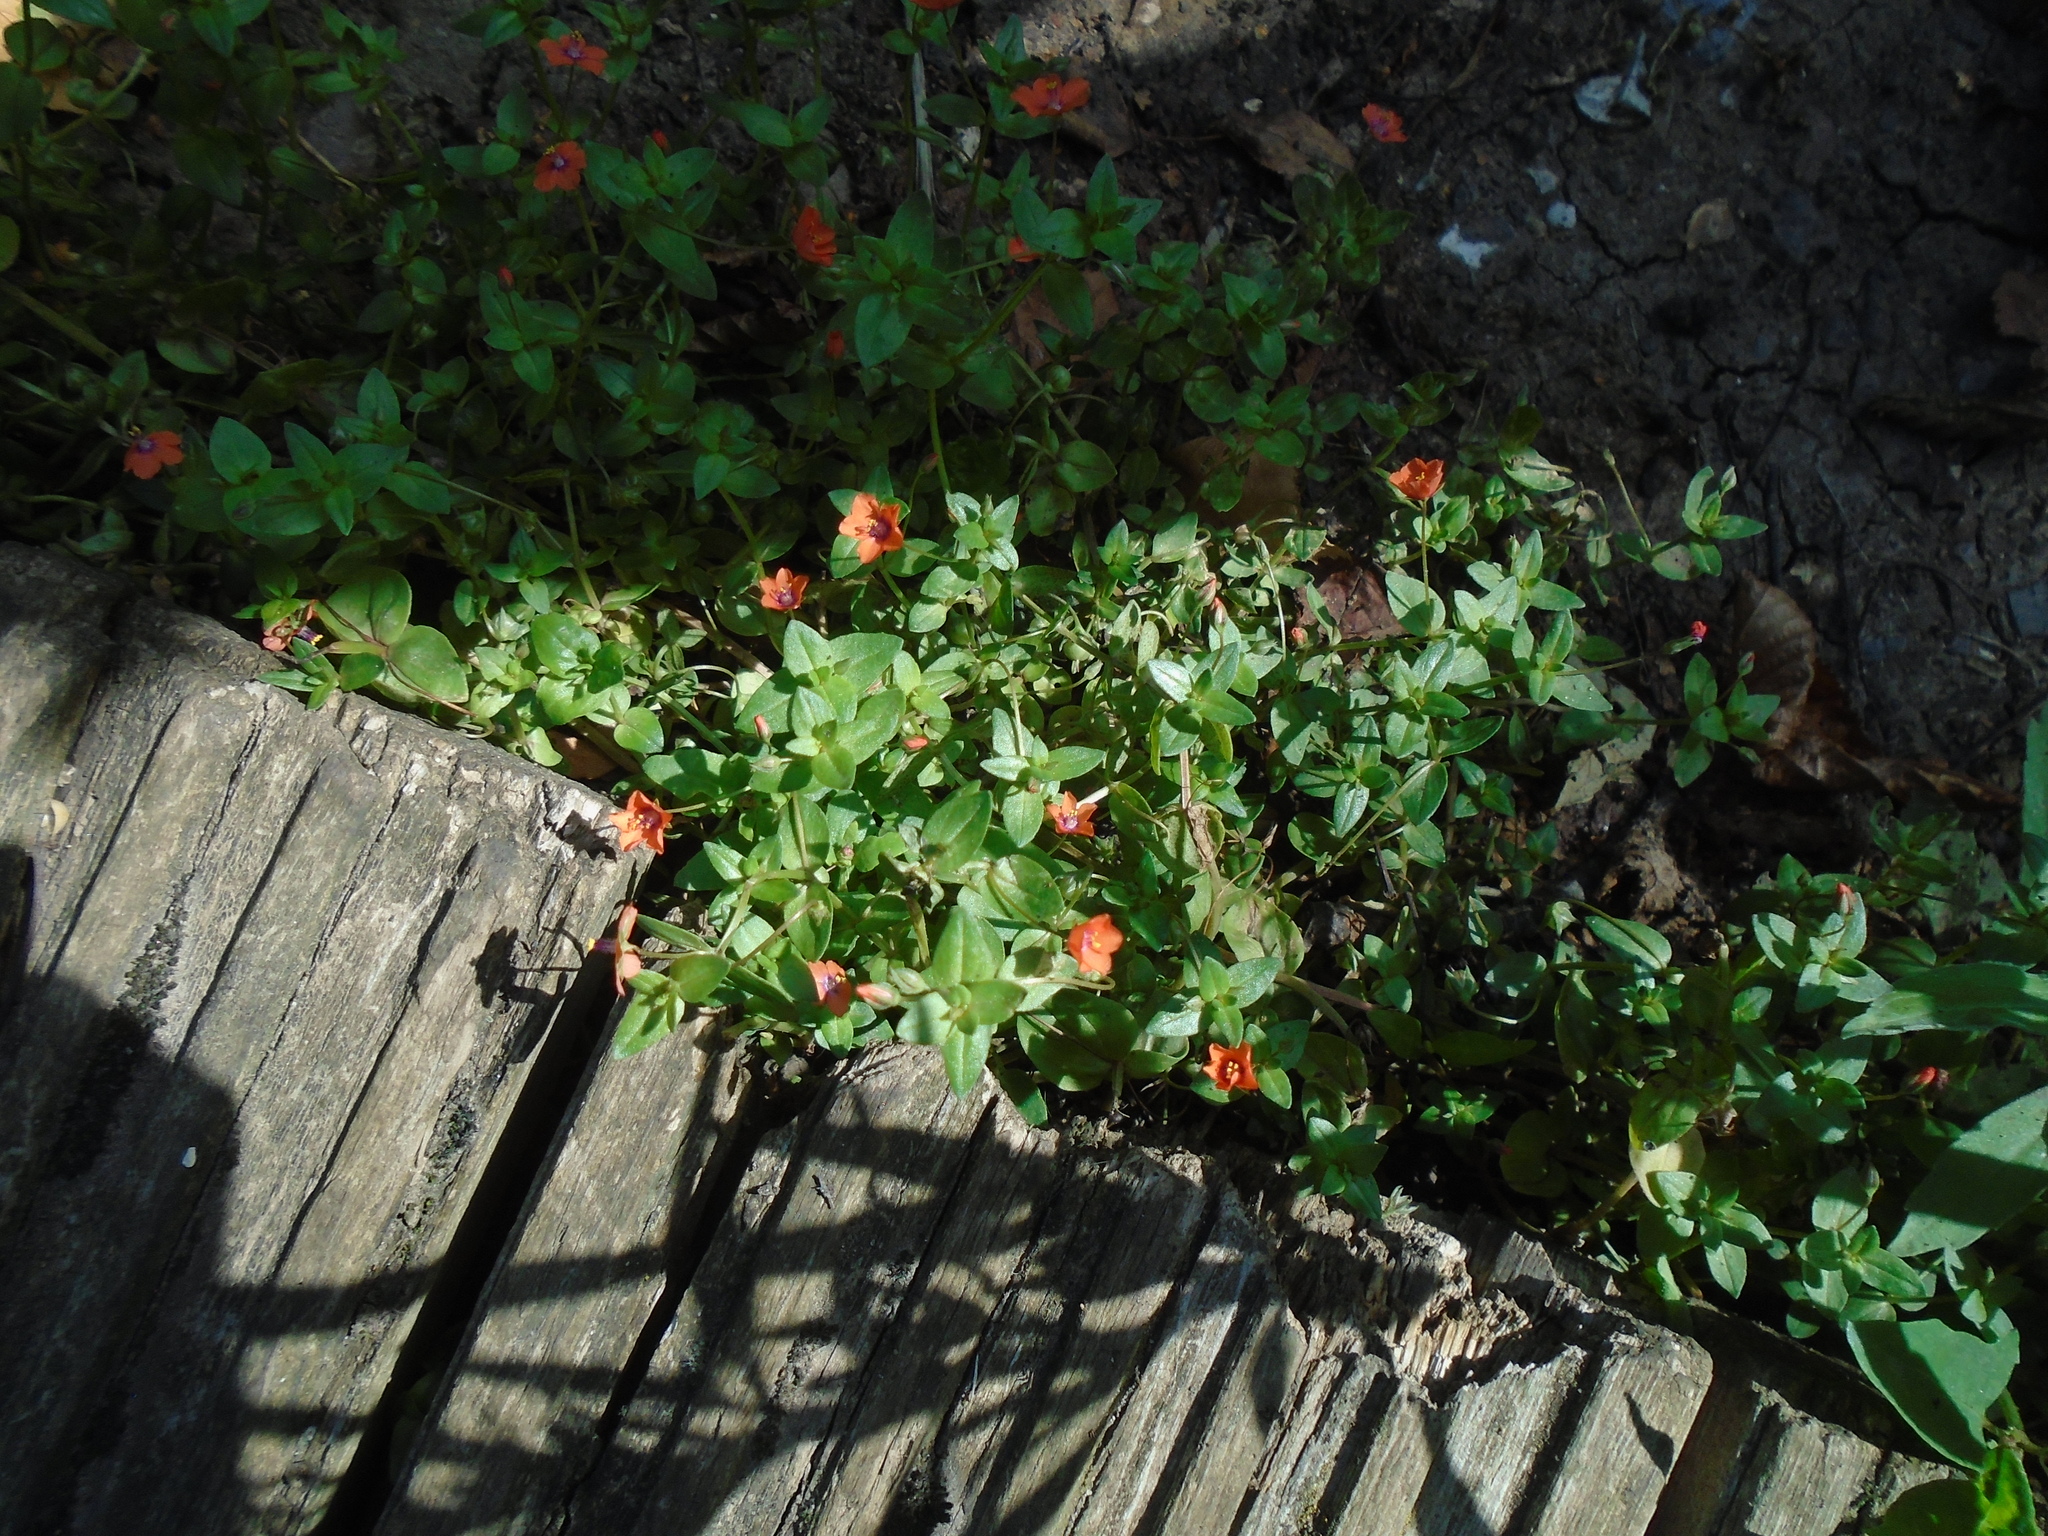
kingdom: Plantae
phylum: Tracheophyta
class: Magnoliopsida
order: Ericales
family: Primulaceae
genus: Lysimachia
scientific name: Lysimachia arvensis
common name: Scarlet pimpernel
